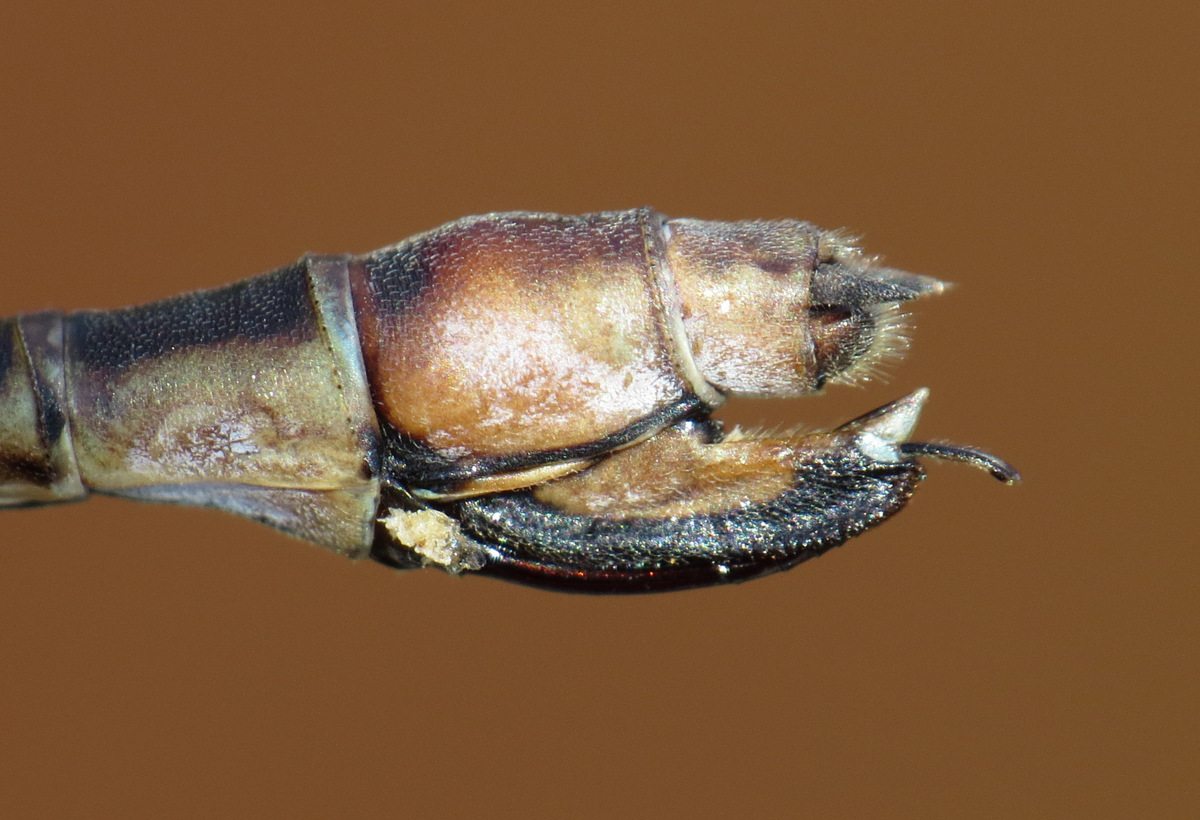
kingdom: Animalia
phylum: Arthropoda
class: Insecta
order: Odonata
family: Lestidae
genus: Lestes
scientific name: Lestes forcipatus
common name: Sweetflag spreadwing
